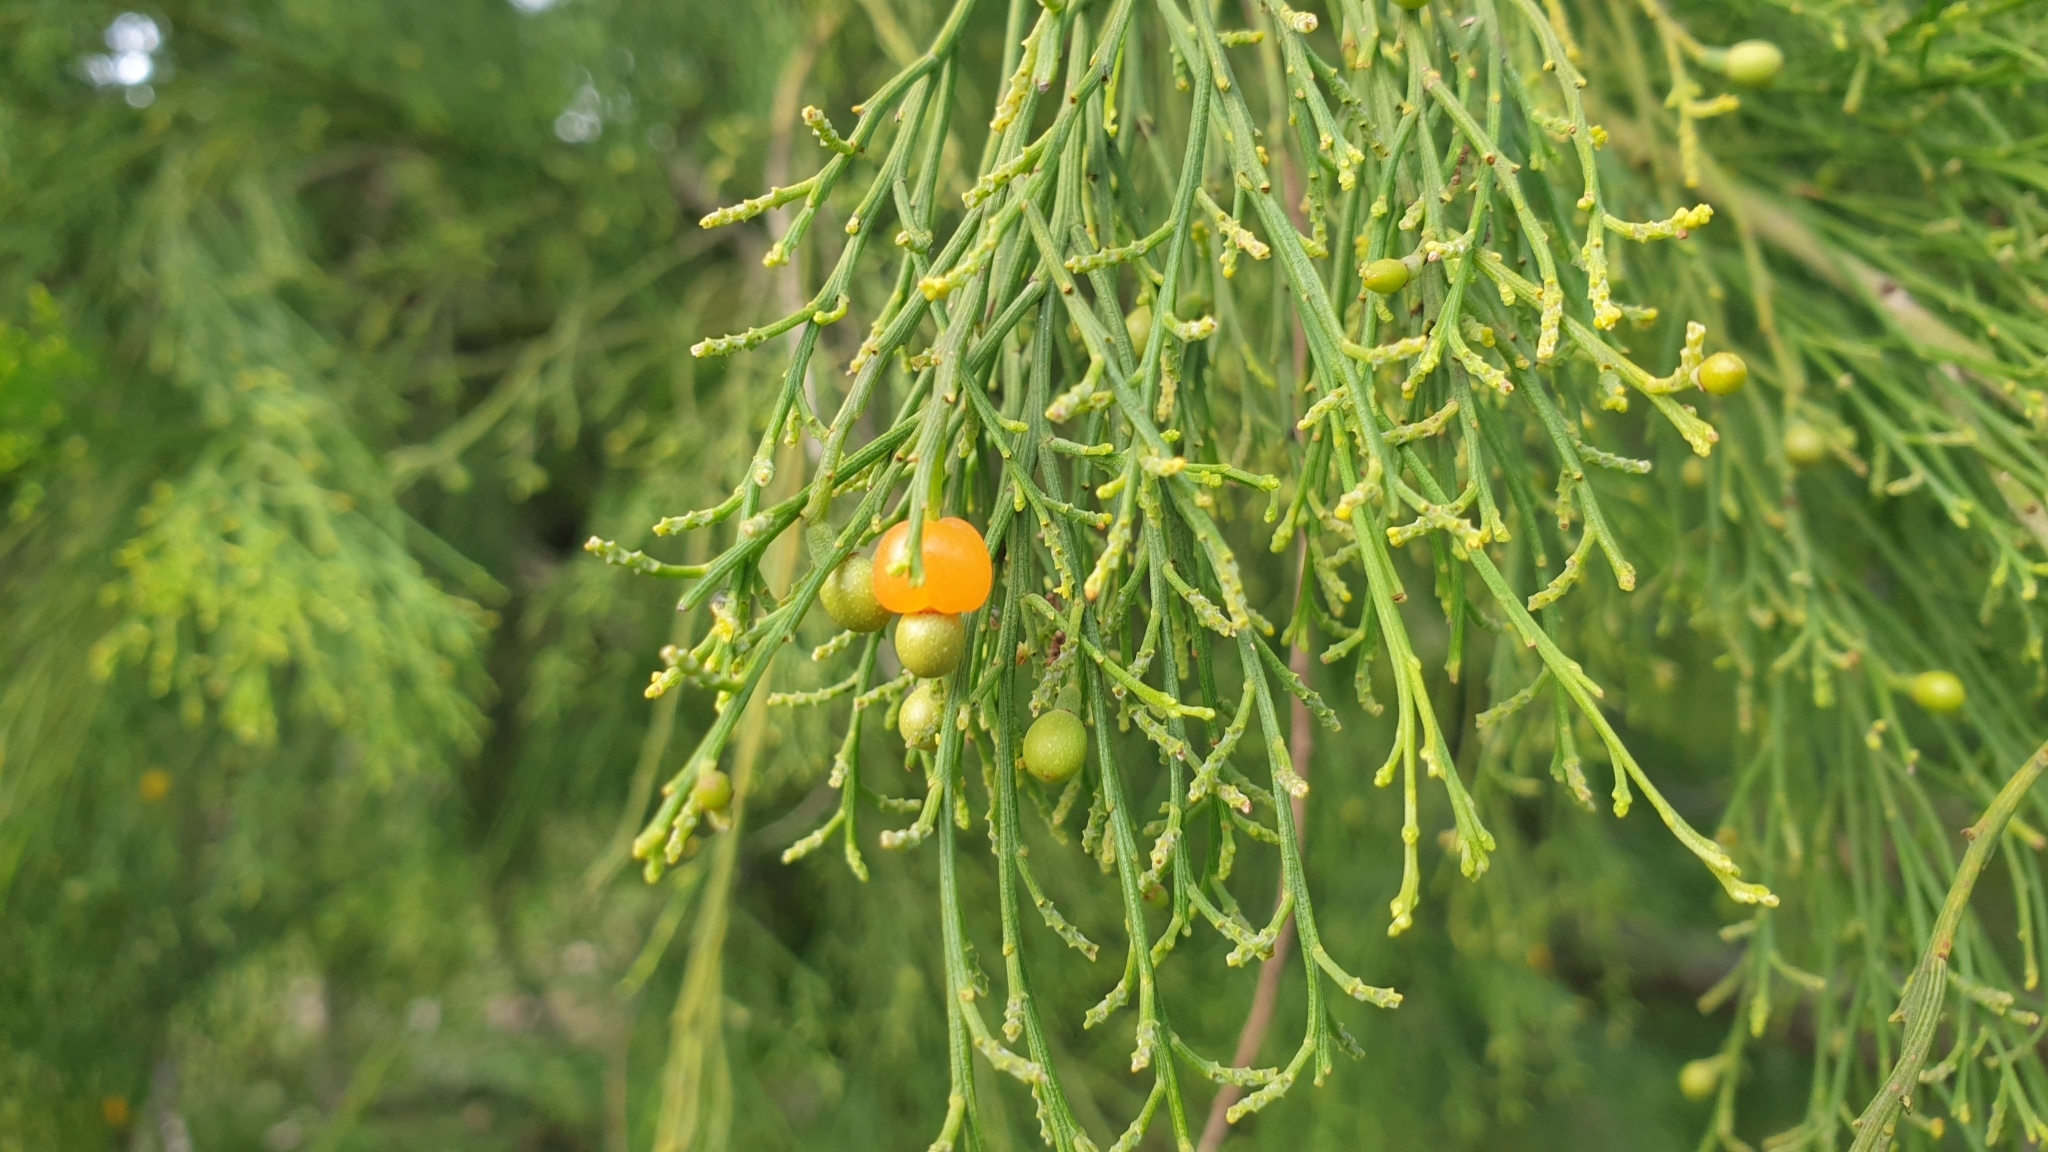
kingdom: Plantae
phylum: Tracheophyta
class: Magnoliopsida
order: Santalales
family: Santalaceae
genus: Exocarpos
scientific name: Exocarpos cupressiformis
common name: Cherry ballart
